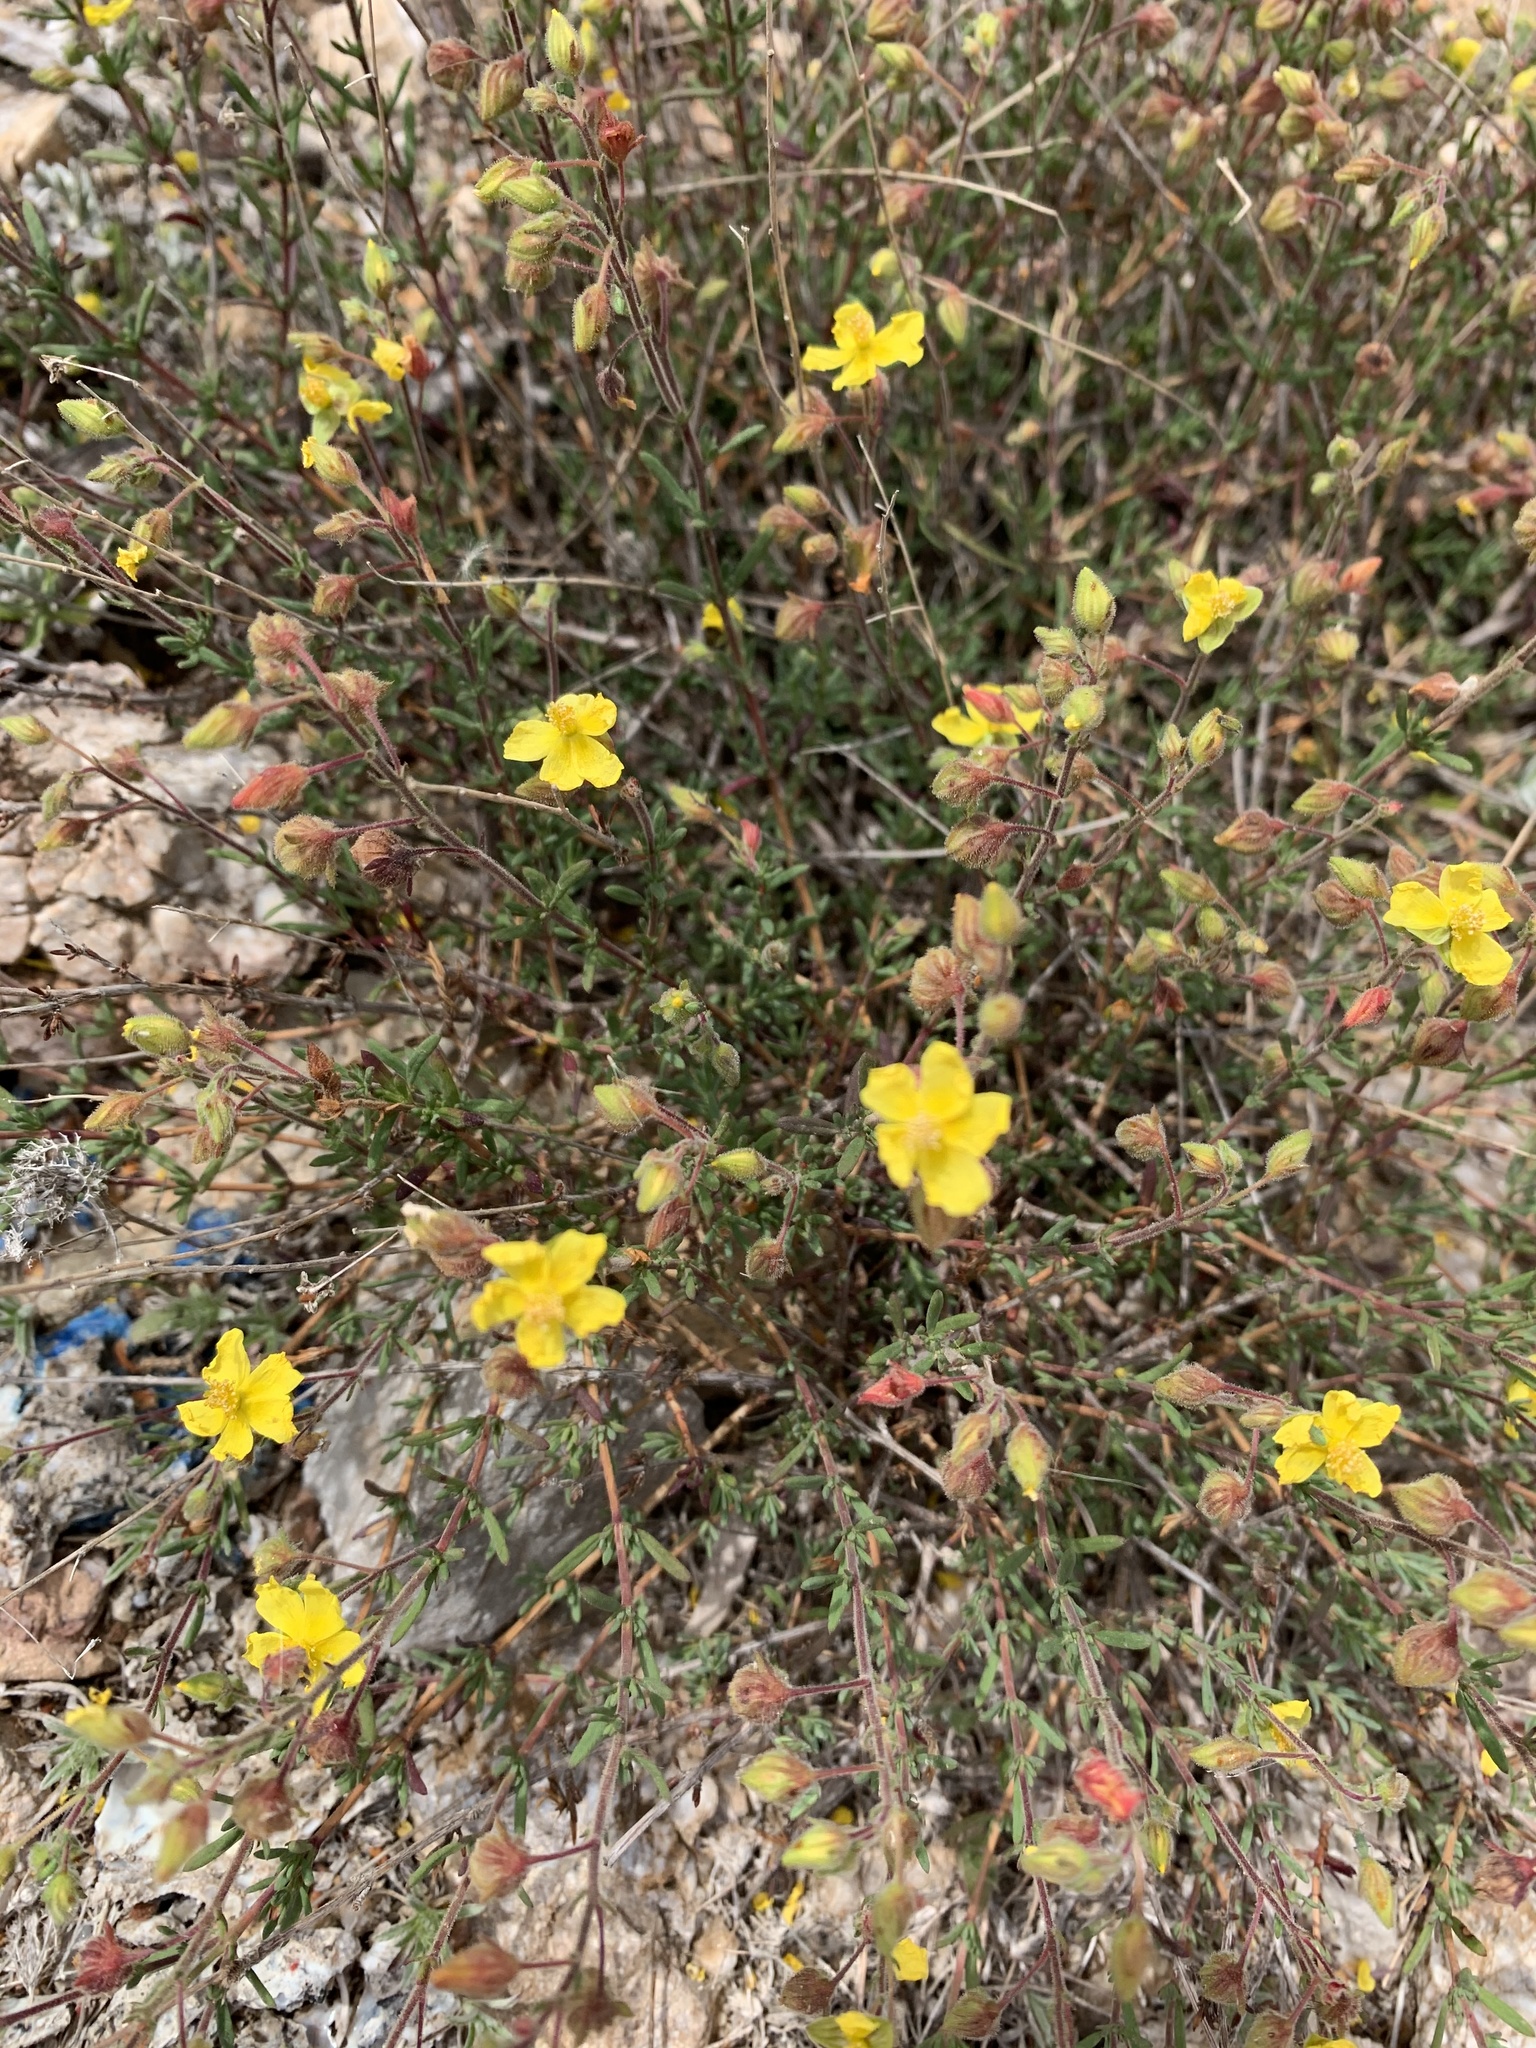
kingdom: Plantae
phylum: Tracheophyta
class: Magnoliopsida
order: Malvales
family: Cistaceae
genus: Fumana
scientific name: Fumana laevis
